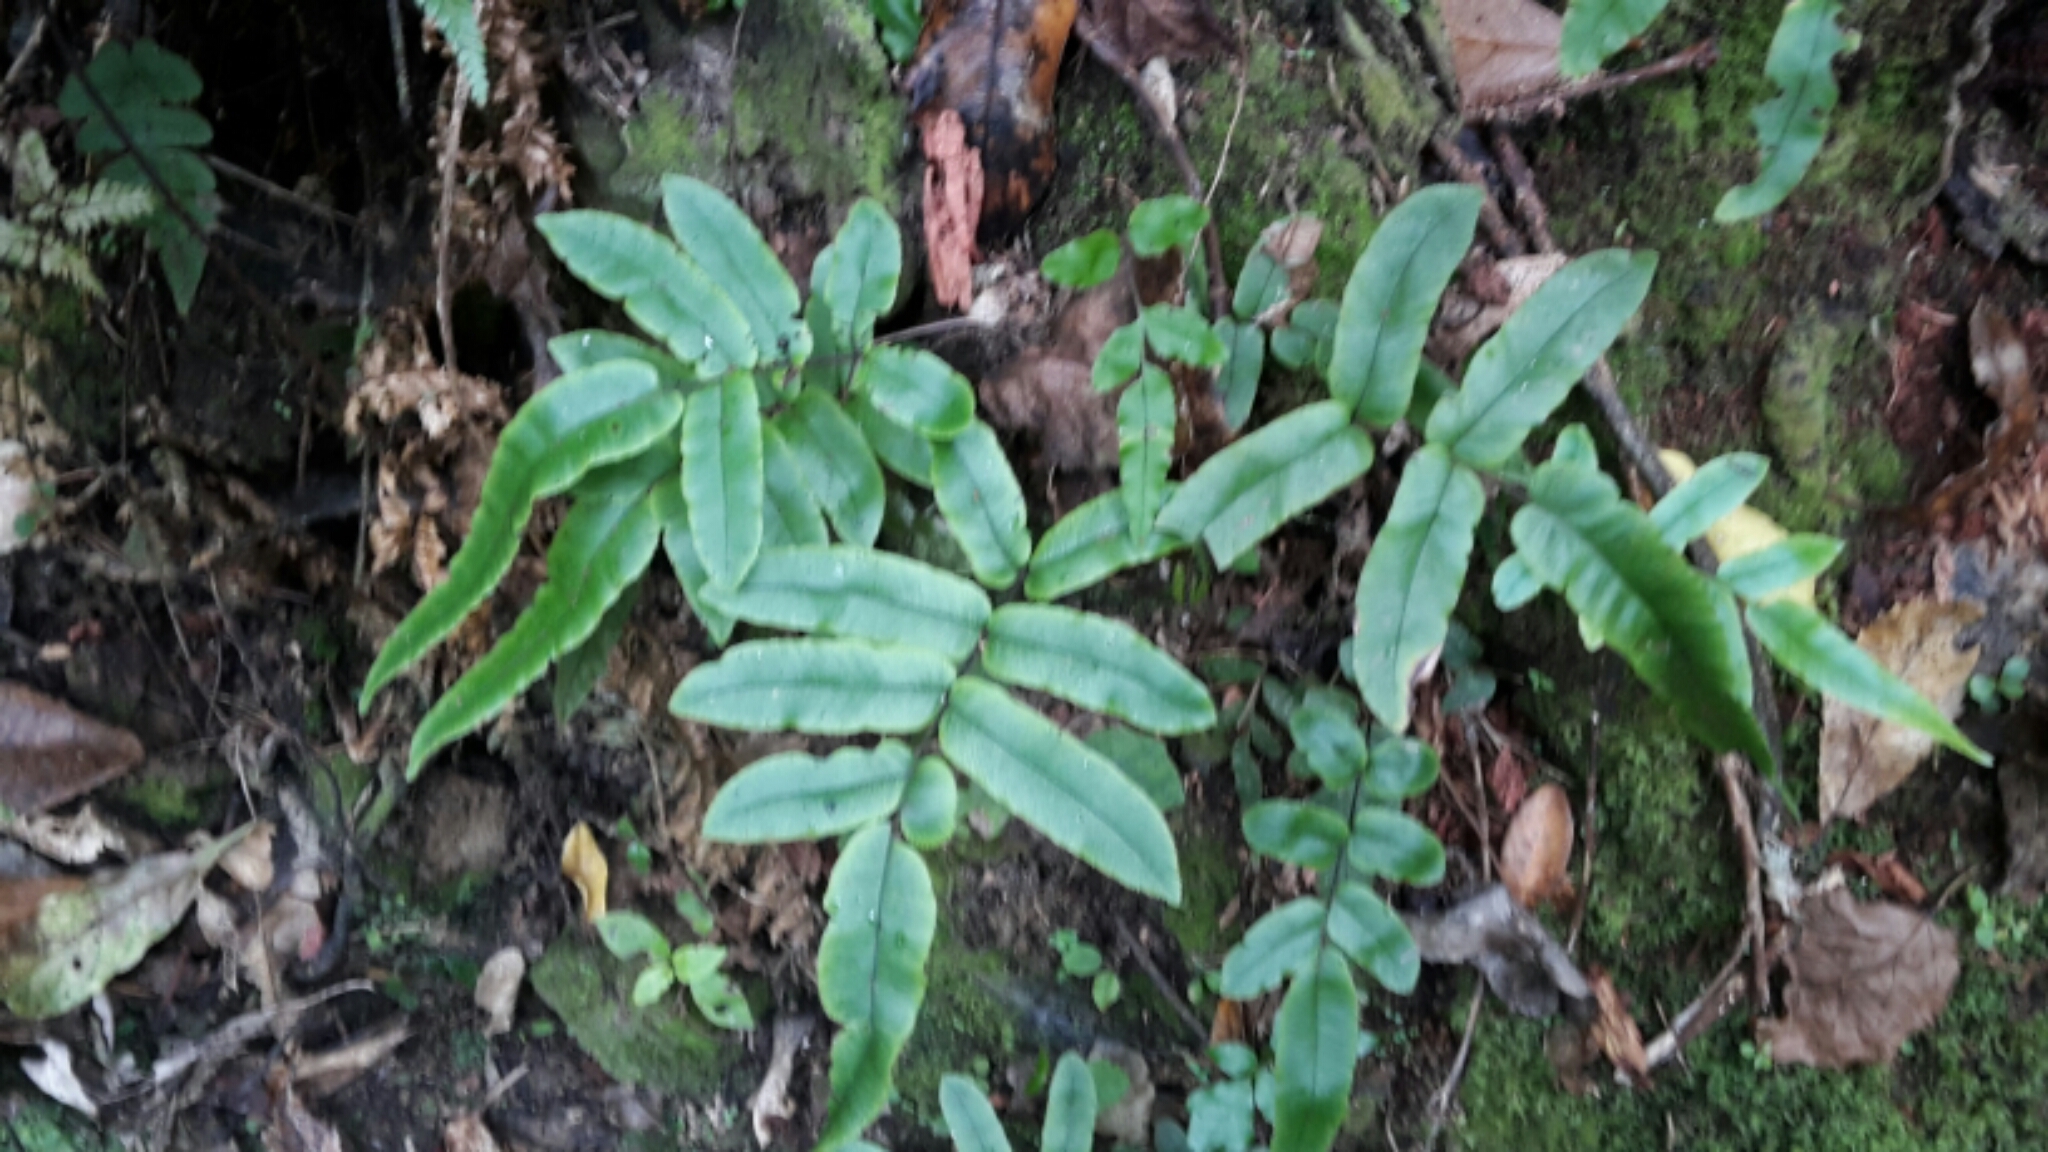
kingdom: Plantae
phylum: Tracheophyta
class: Polypodiopsida
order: Polypodiales
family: Blechnaceae
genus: Parablechnum
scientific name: Parablechnum procerum
